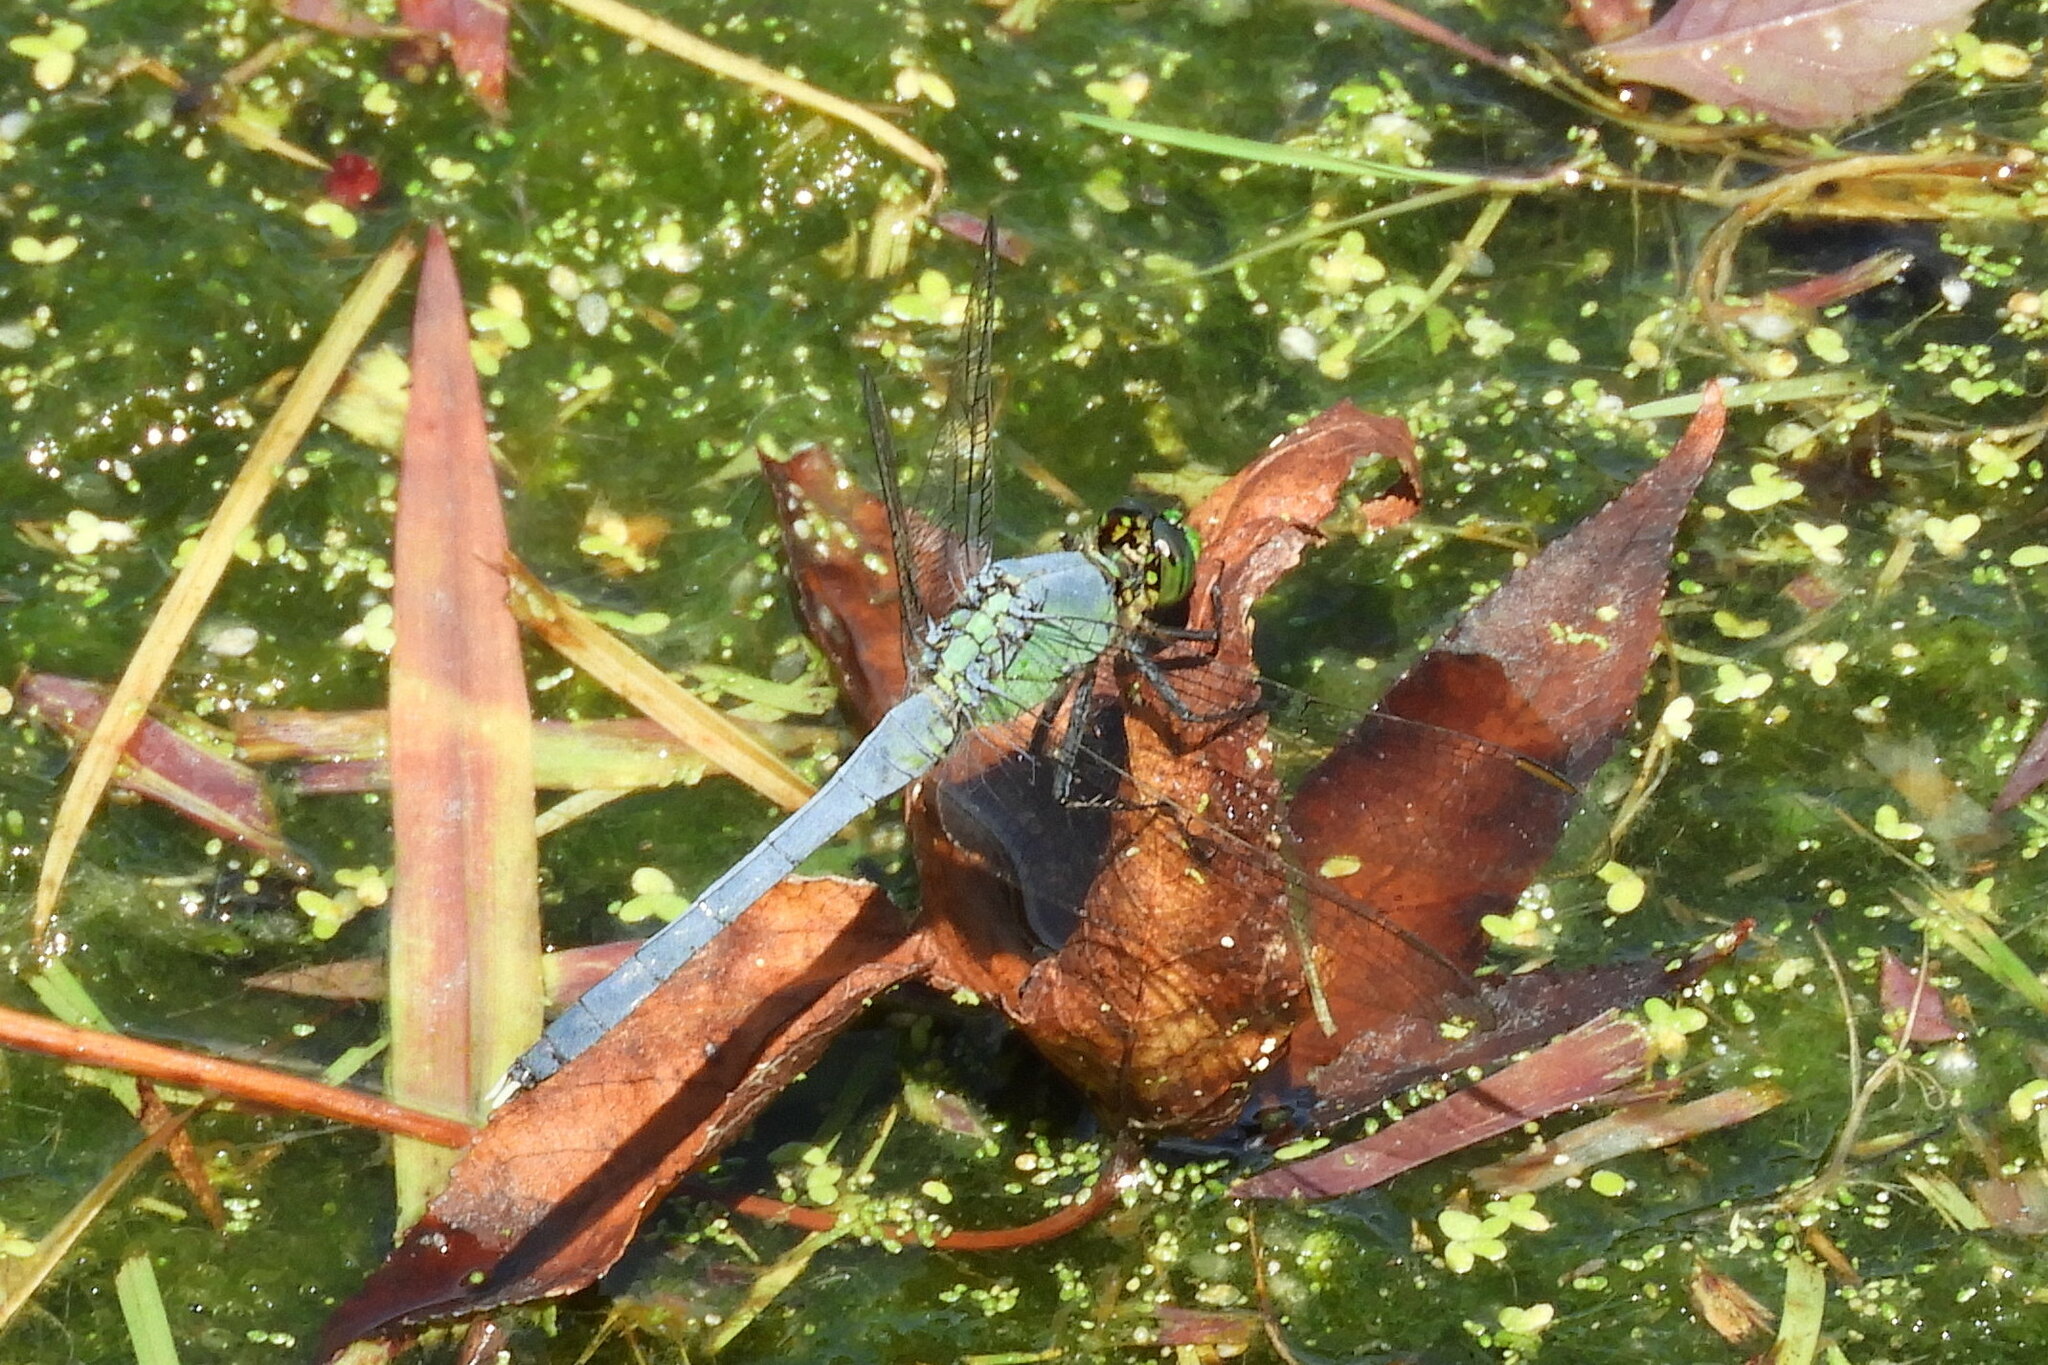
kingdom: Animalia
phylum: Arthropoda
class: Insecta
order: Odonata
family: Libellulidae
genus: Erythemis
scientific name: Erythemis simplicicollis
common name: Eastern pondhawk
